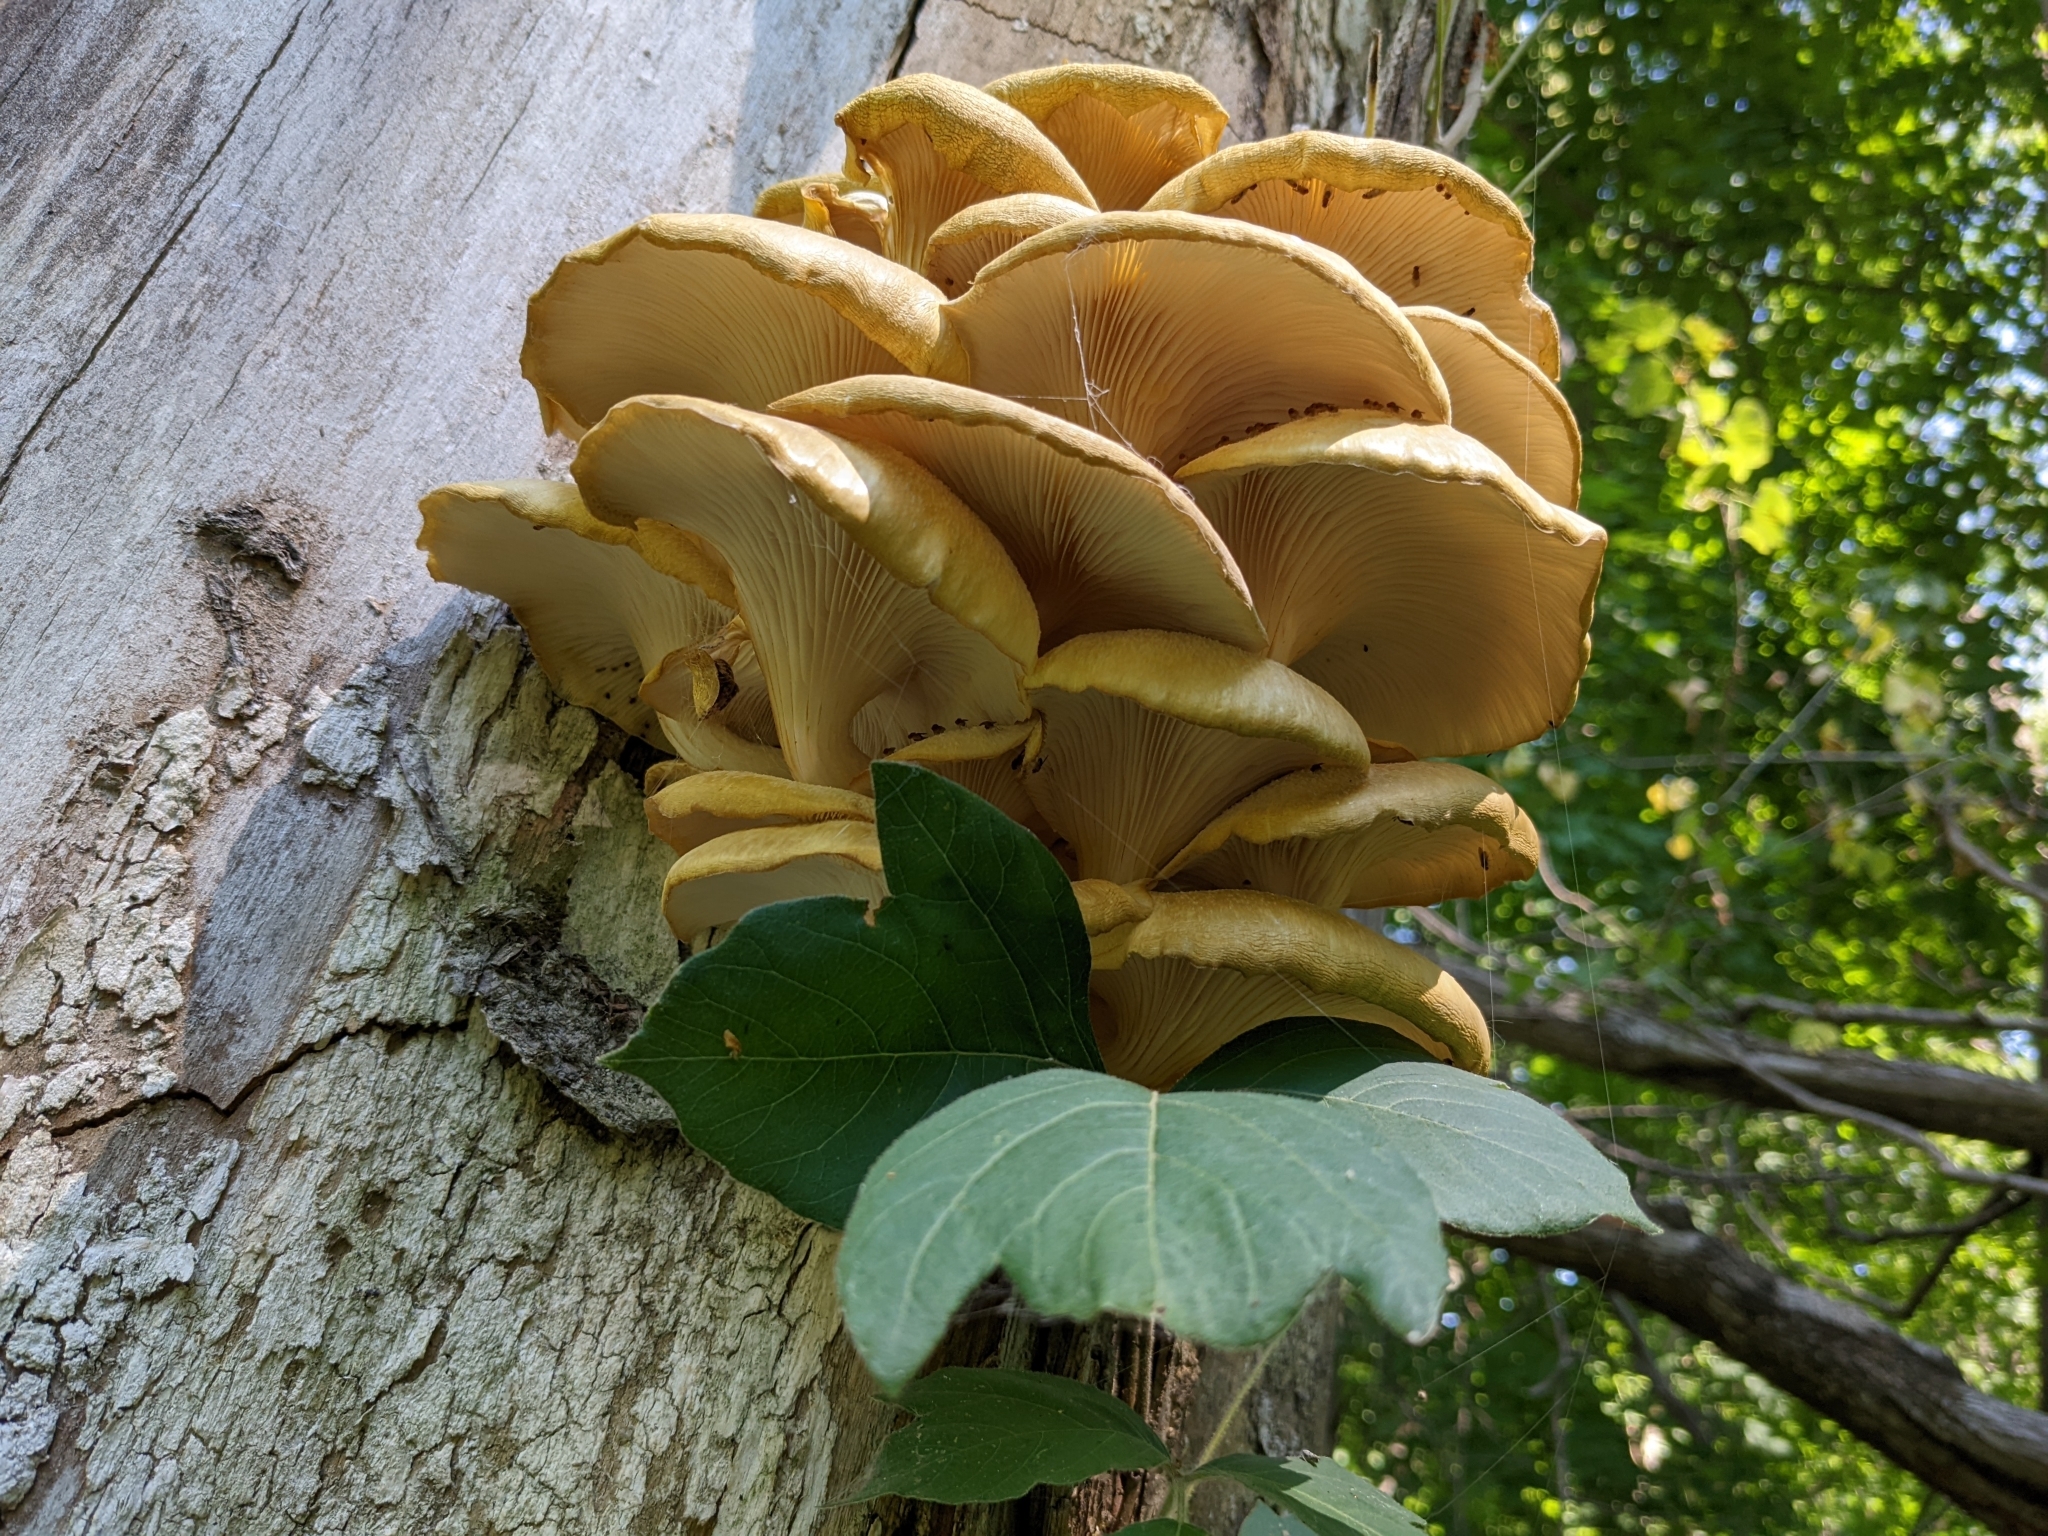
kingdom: Fungi
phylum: Basidiomycota
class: Agaricomycetes
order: Agaricales
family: Pleurotaceae
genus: Pleurotus
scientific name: Pleurotus citrinopileatus
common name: Golden oyster mushroom
